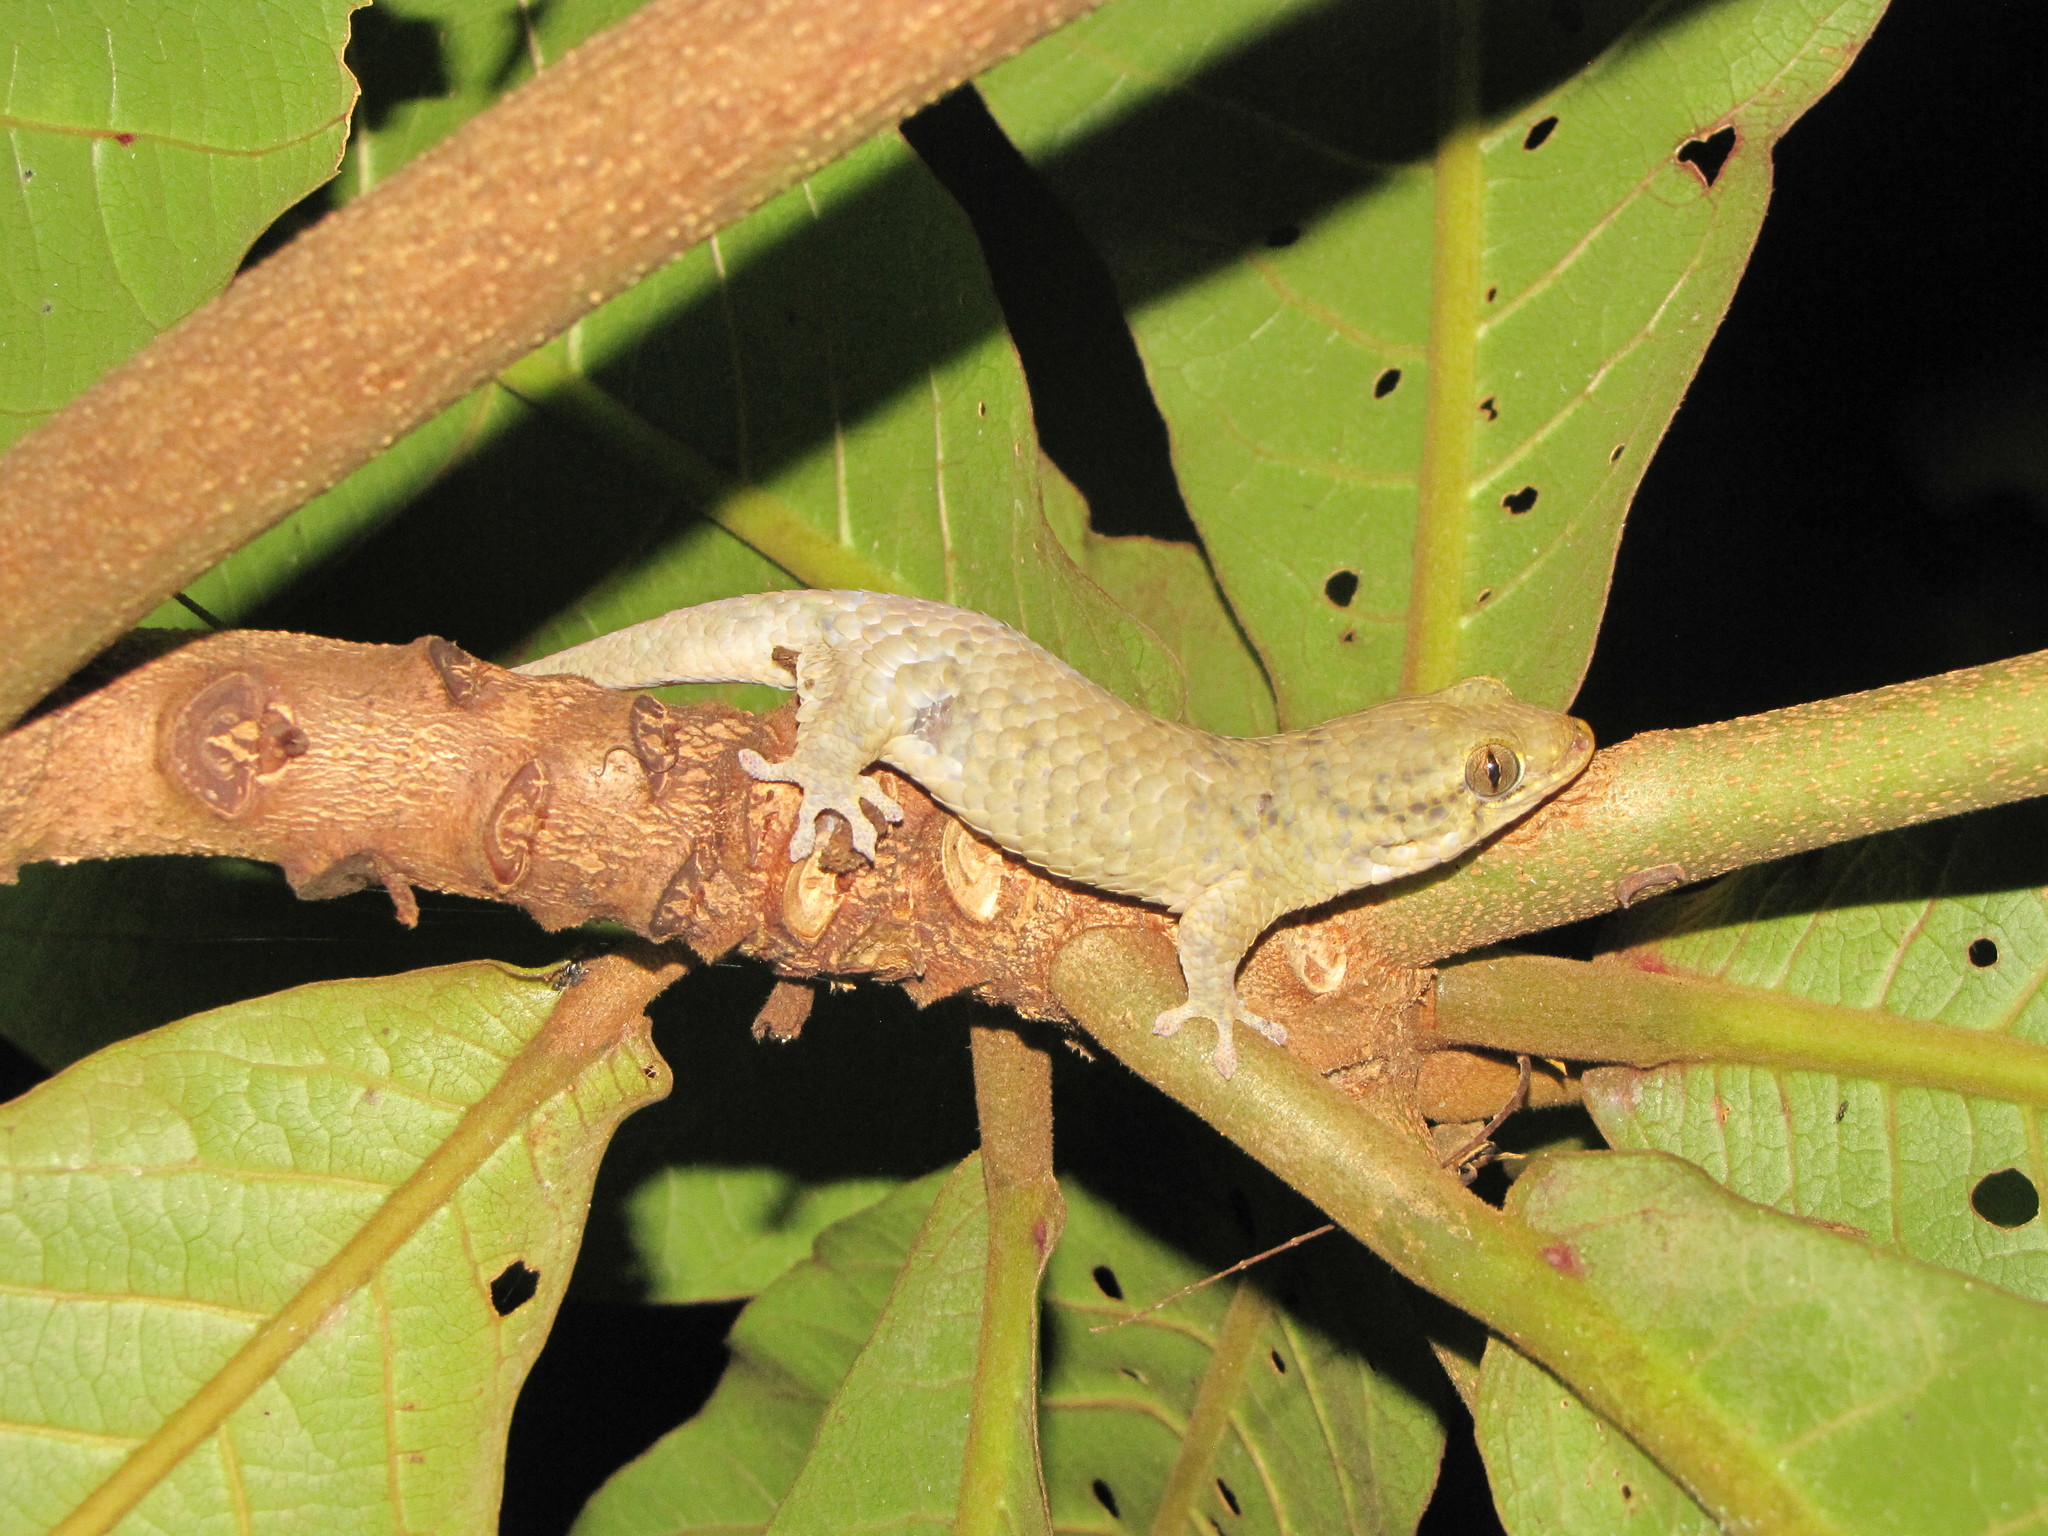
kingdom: Animalia
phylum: Chordata
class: Squamata
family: Gekkonidae
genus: Geckolepis
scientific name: Geckolepis maculata
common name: Peters' spotted gecko
